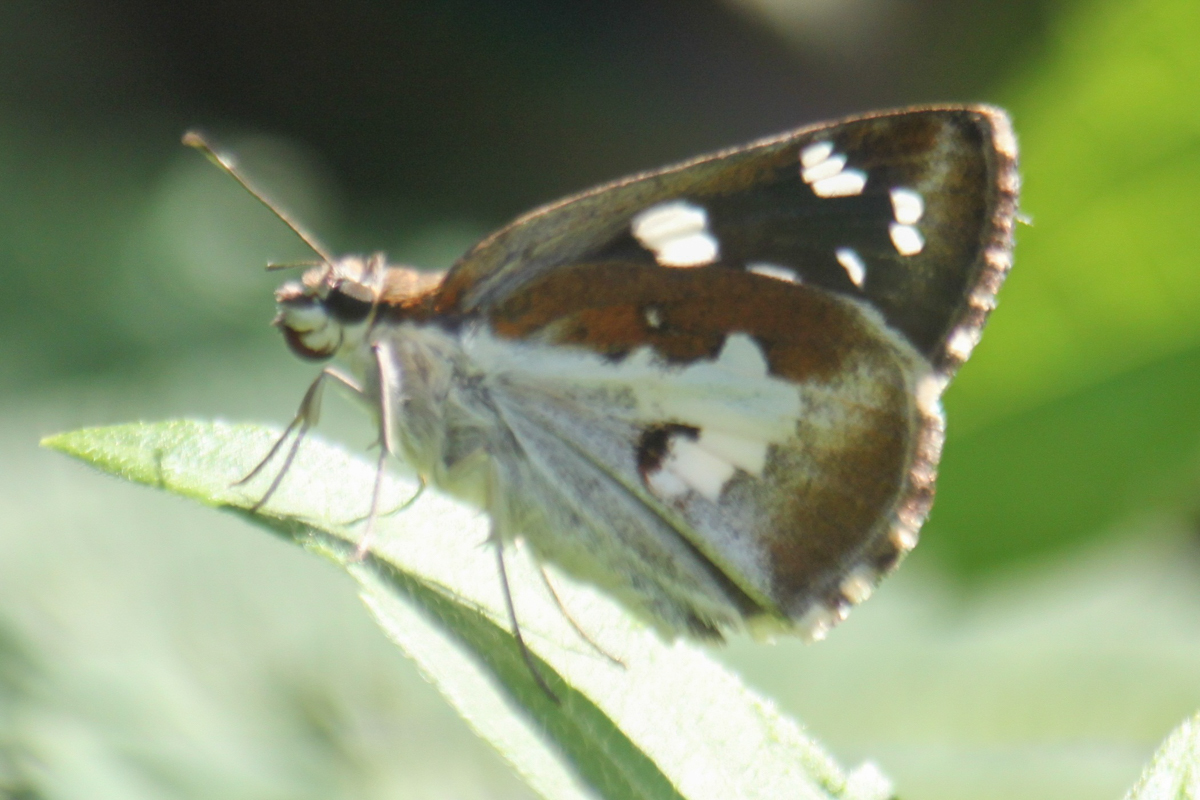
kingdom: Animalia
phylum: Arthropoda
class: Insecta
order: Lepidoptera
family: Hesperiidae
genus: Udaspes
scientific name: Udaspes folus
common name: Grass demon
